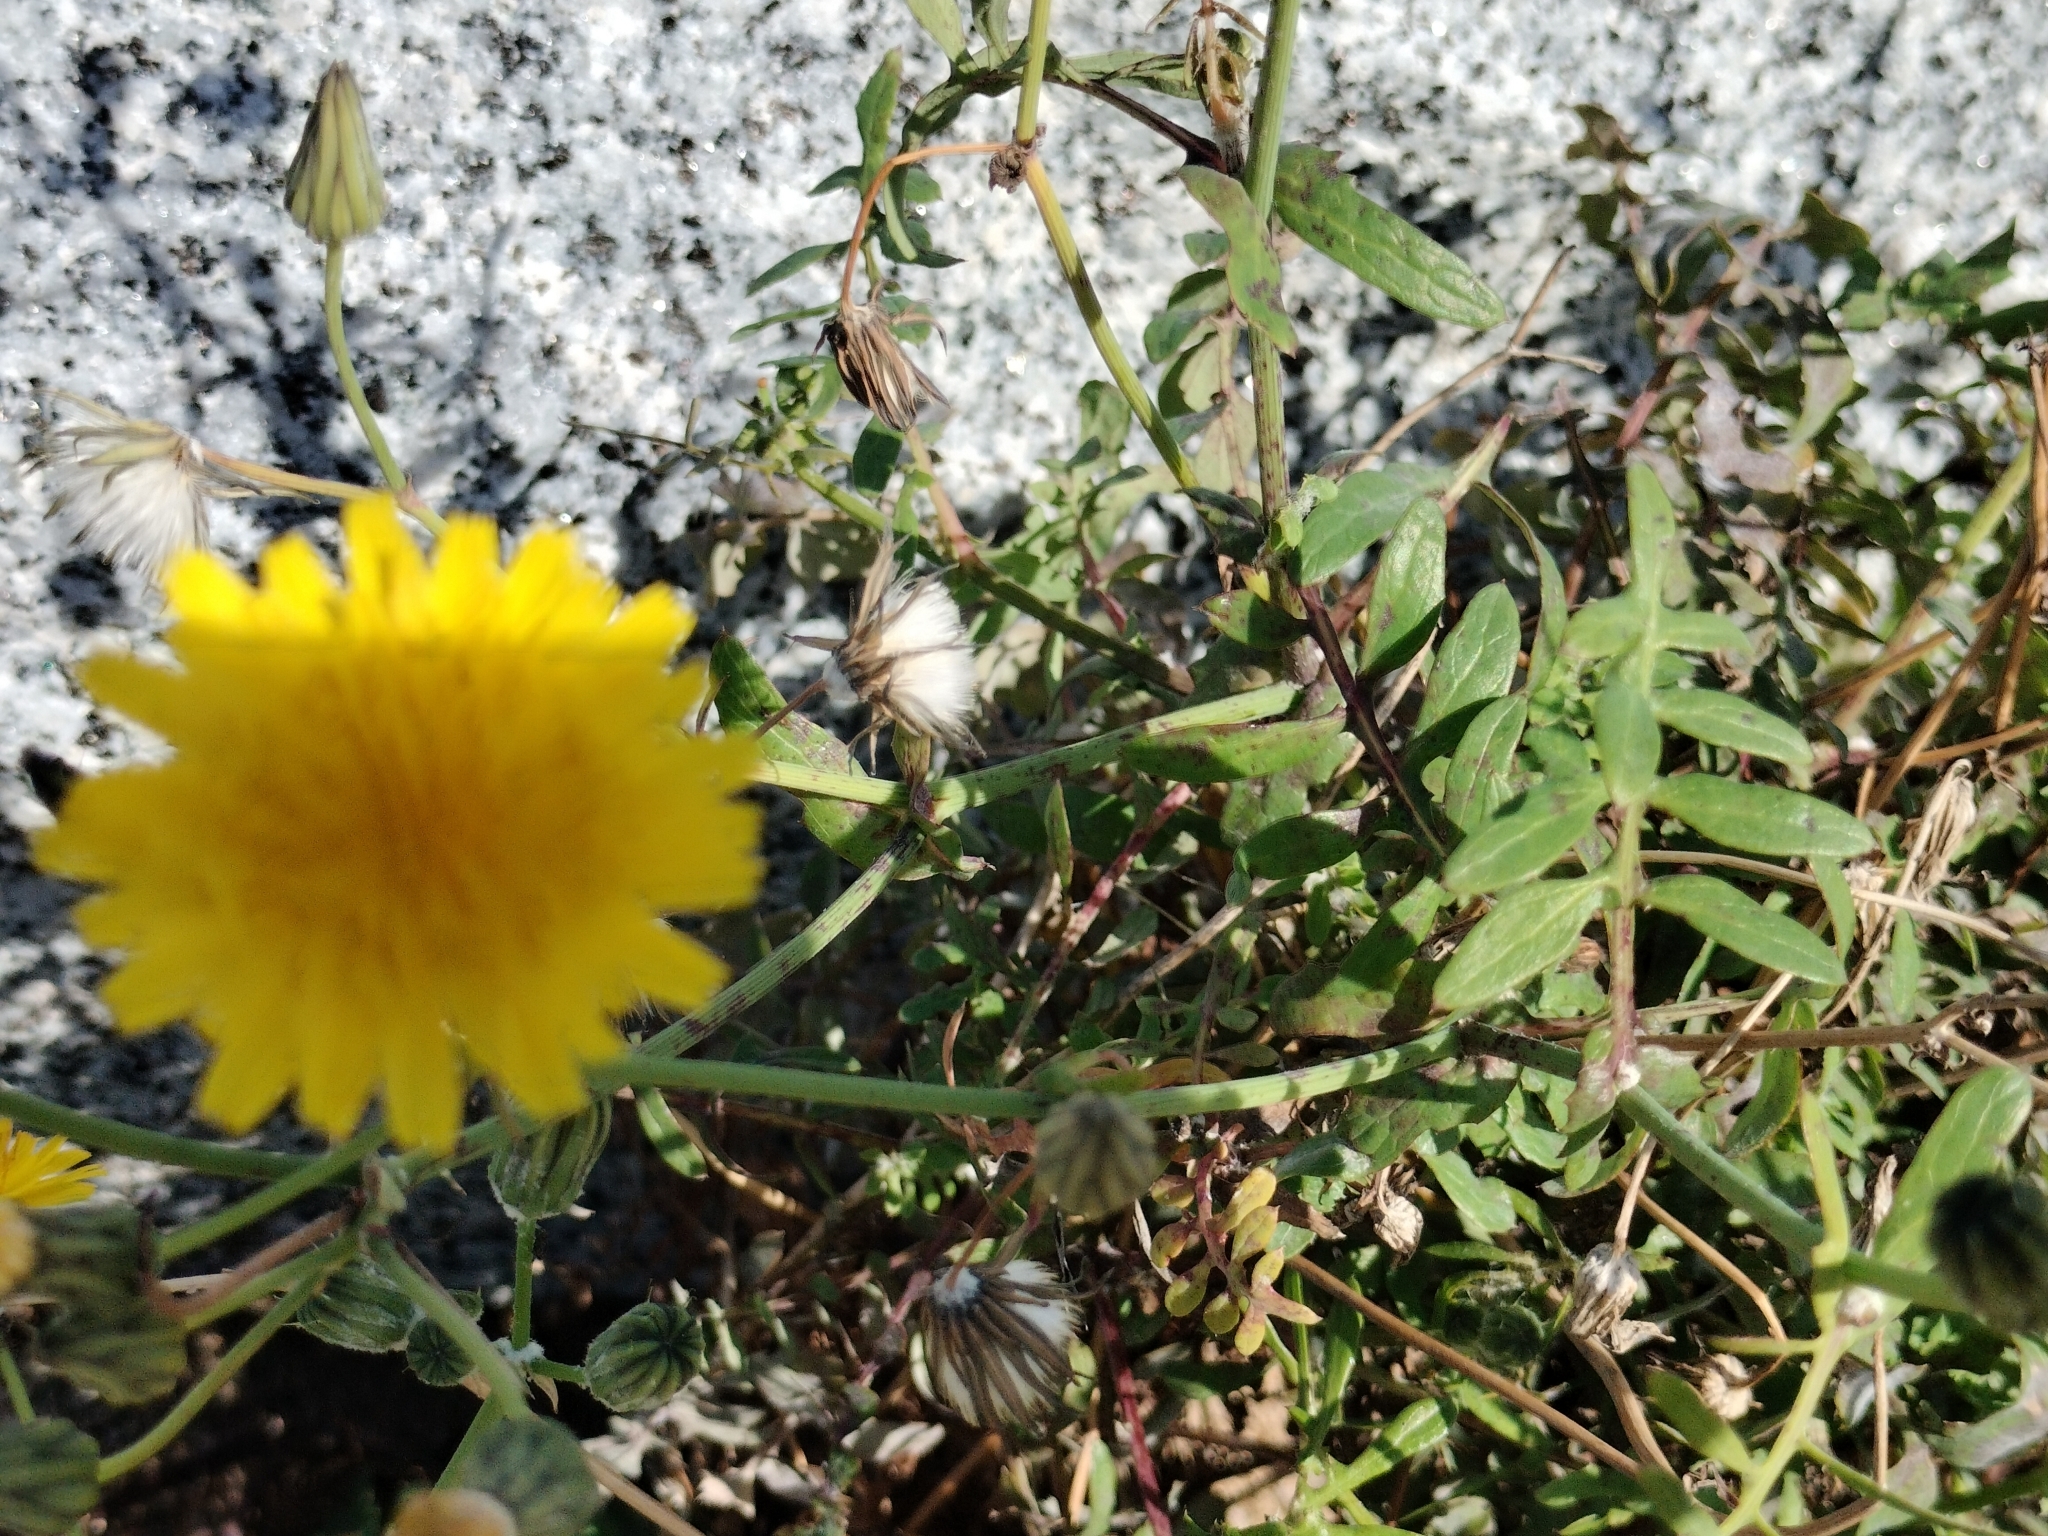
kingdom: Plantae
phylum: Tracheophyta
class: Magnoliopsida
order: Asterales
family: Asteraceae
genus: Sonchus
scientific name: Sonchus tenerrimus
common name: Clammy sowthistle
